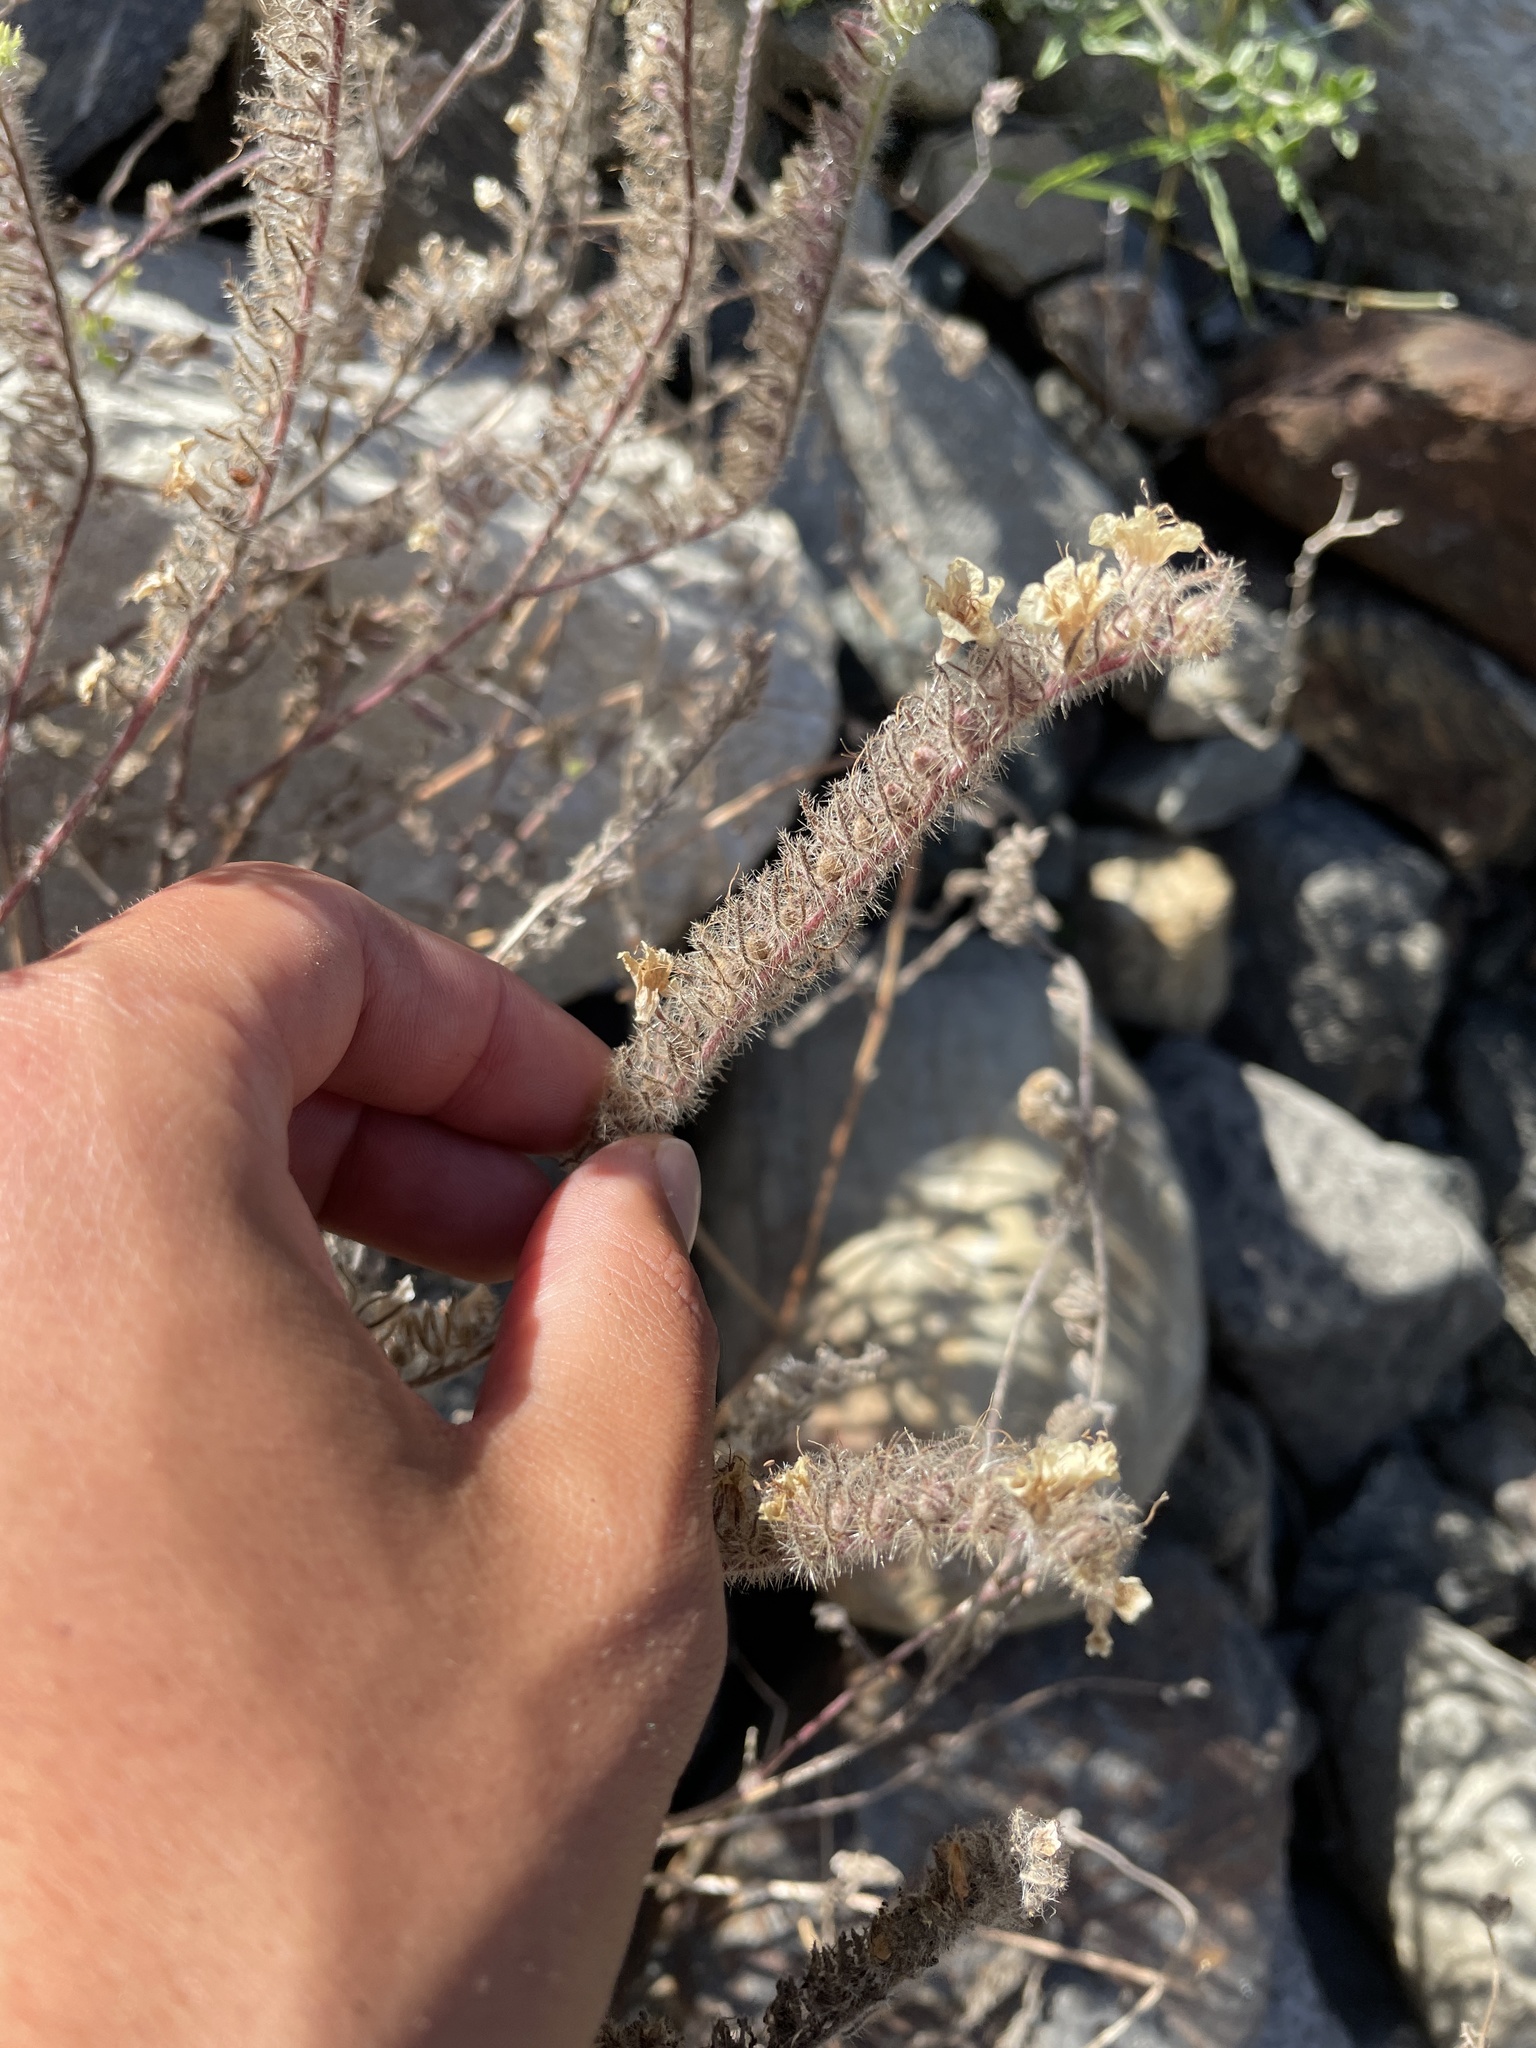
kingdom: Plantae
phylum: Tracheophyta
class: Magnoliopsida
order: Boraginales
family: Hydrophyllaceae
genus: Phacelia
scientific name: Phacelia cicutaria
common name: Caterpillar phacelia
